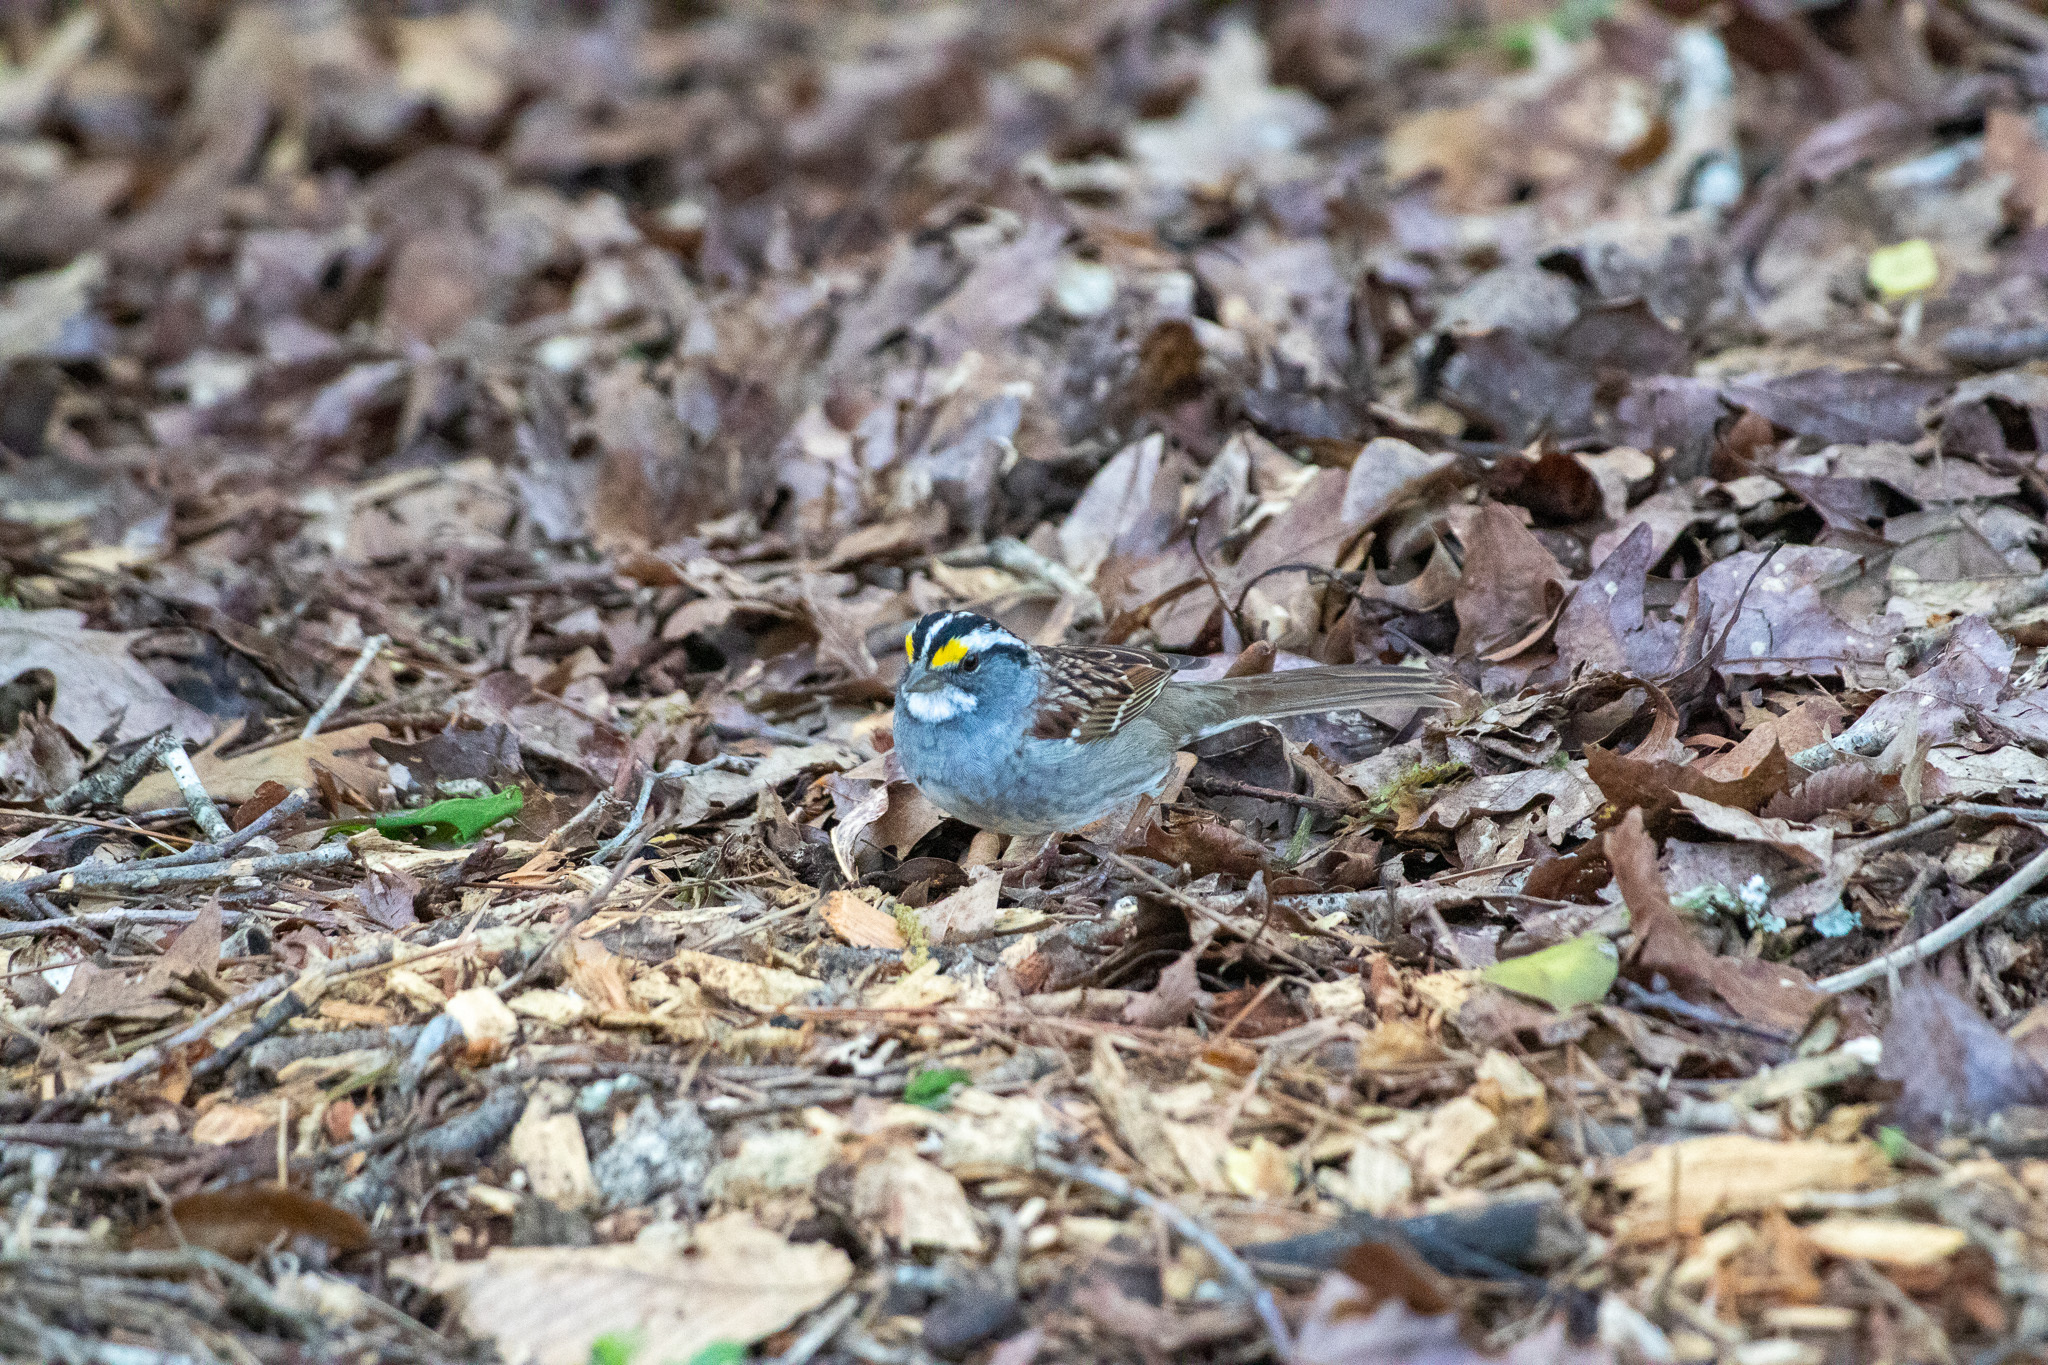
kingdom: Animalia
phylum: Chordata
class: Aves
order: Passeriformes
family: Passerellidae
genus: Zonotrichia
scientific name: Zonotrichia albicollis
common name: White-throated sparrow
